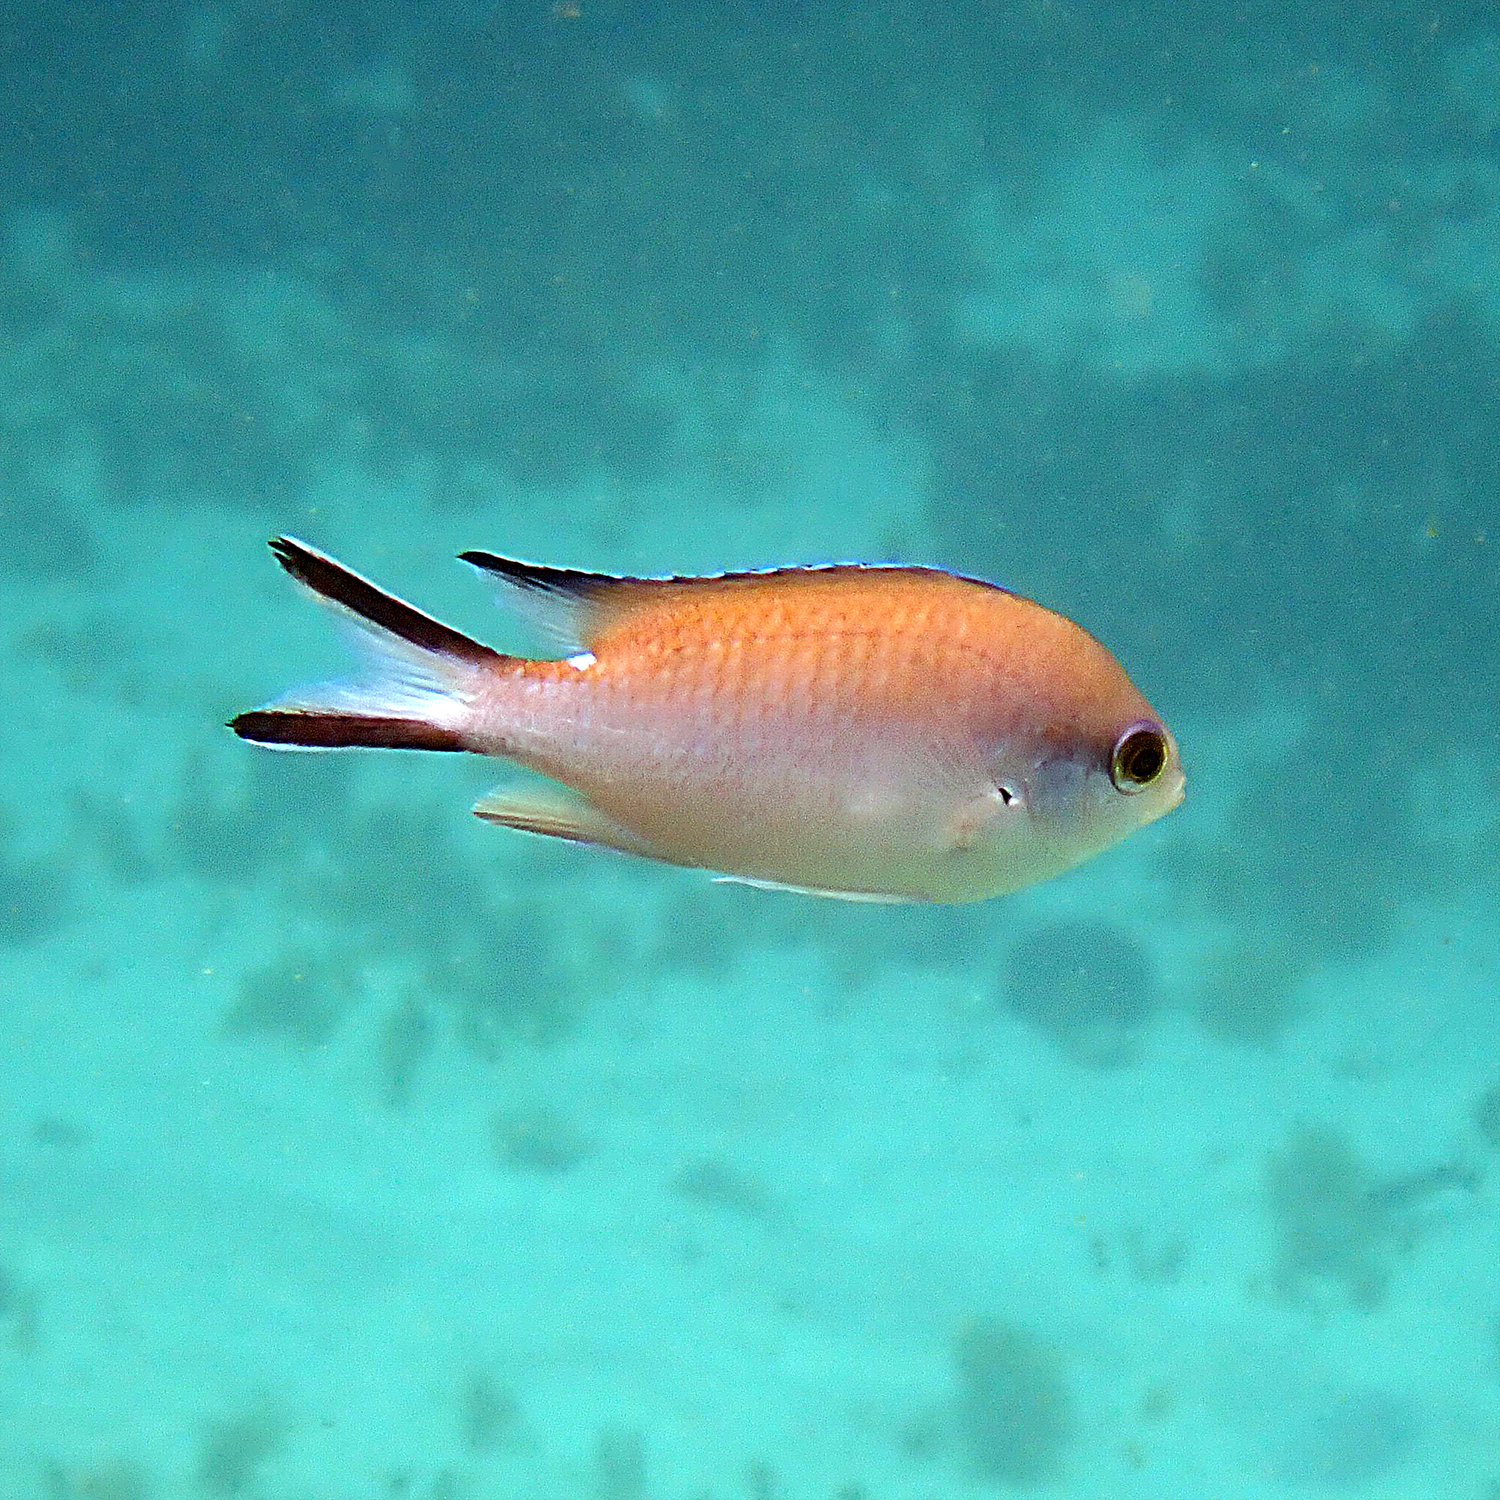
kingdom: Animalia
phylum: Chordata
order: Perciformes
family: Pomacentridae
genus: Chromis
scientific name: Chromis norfolkensis
